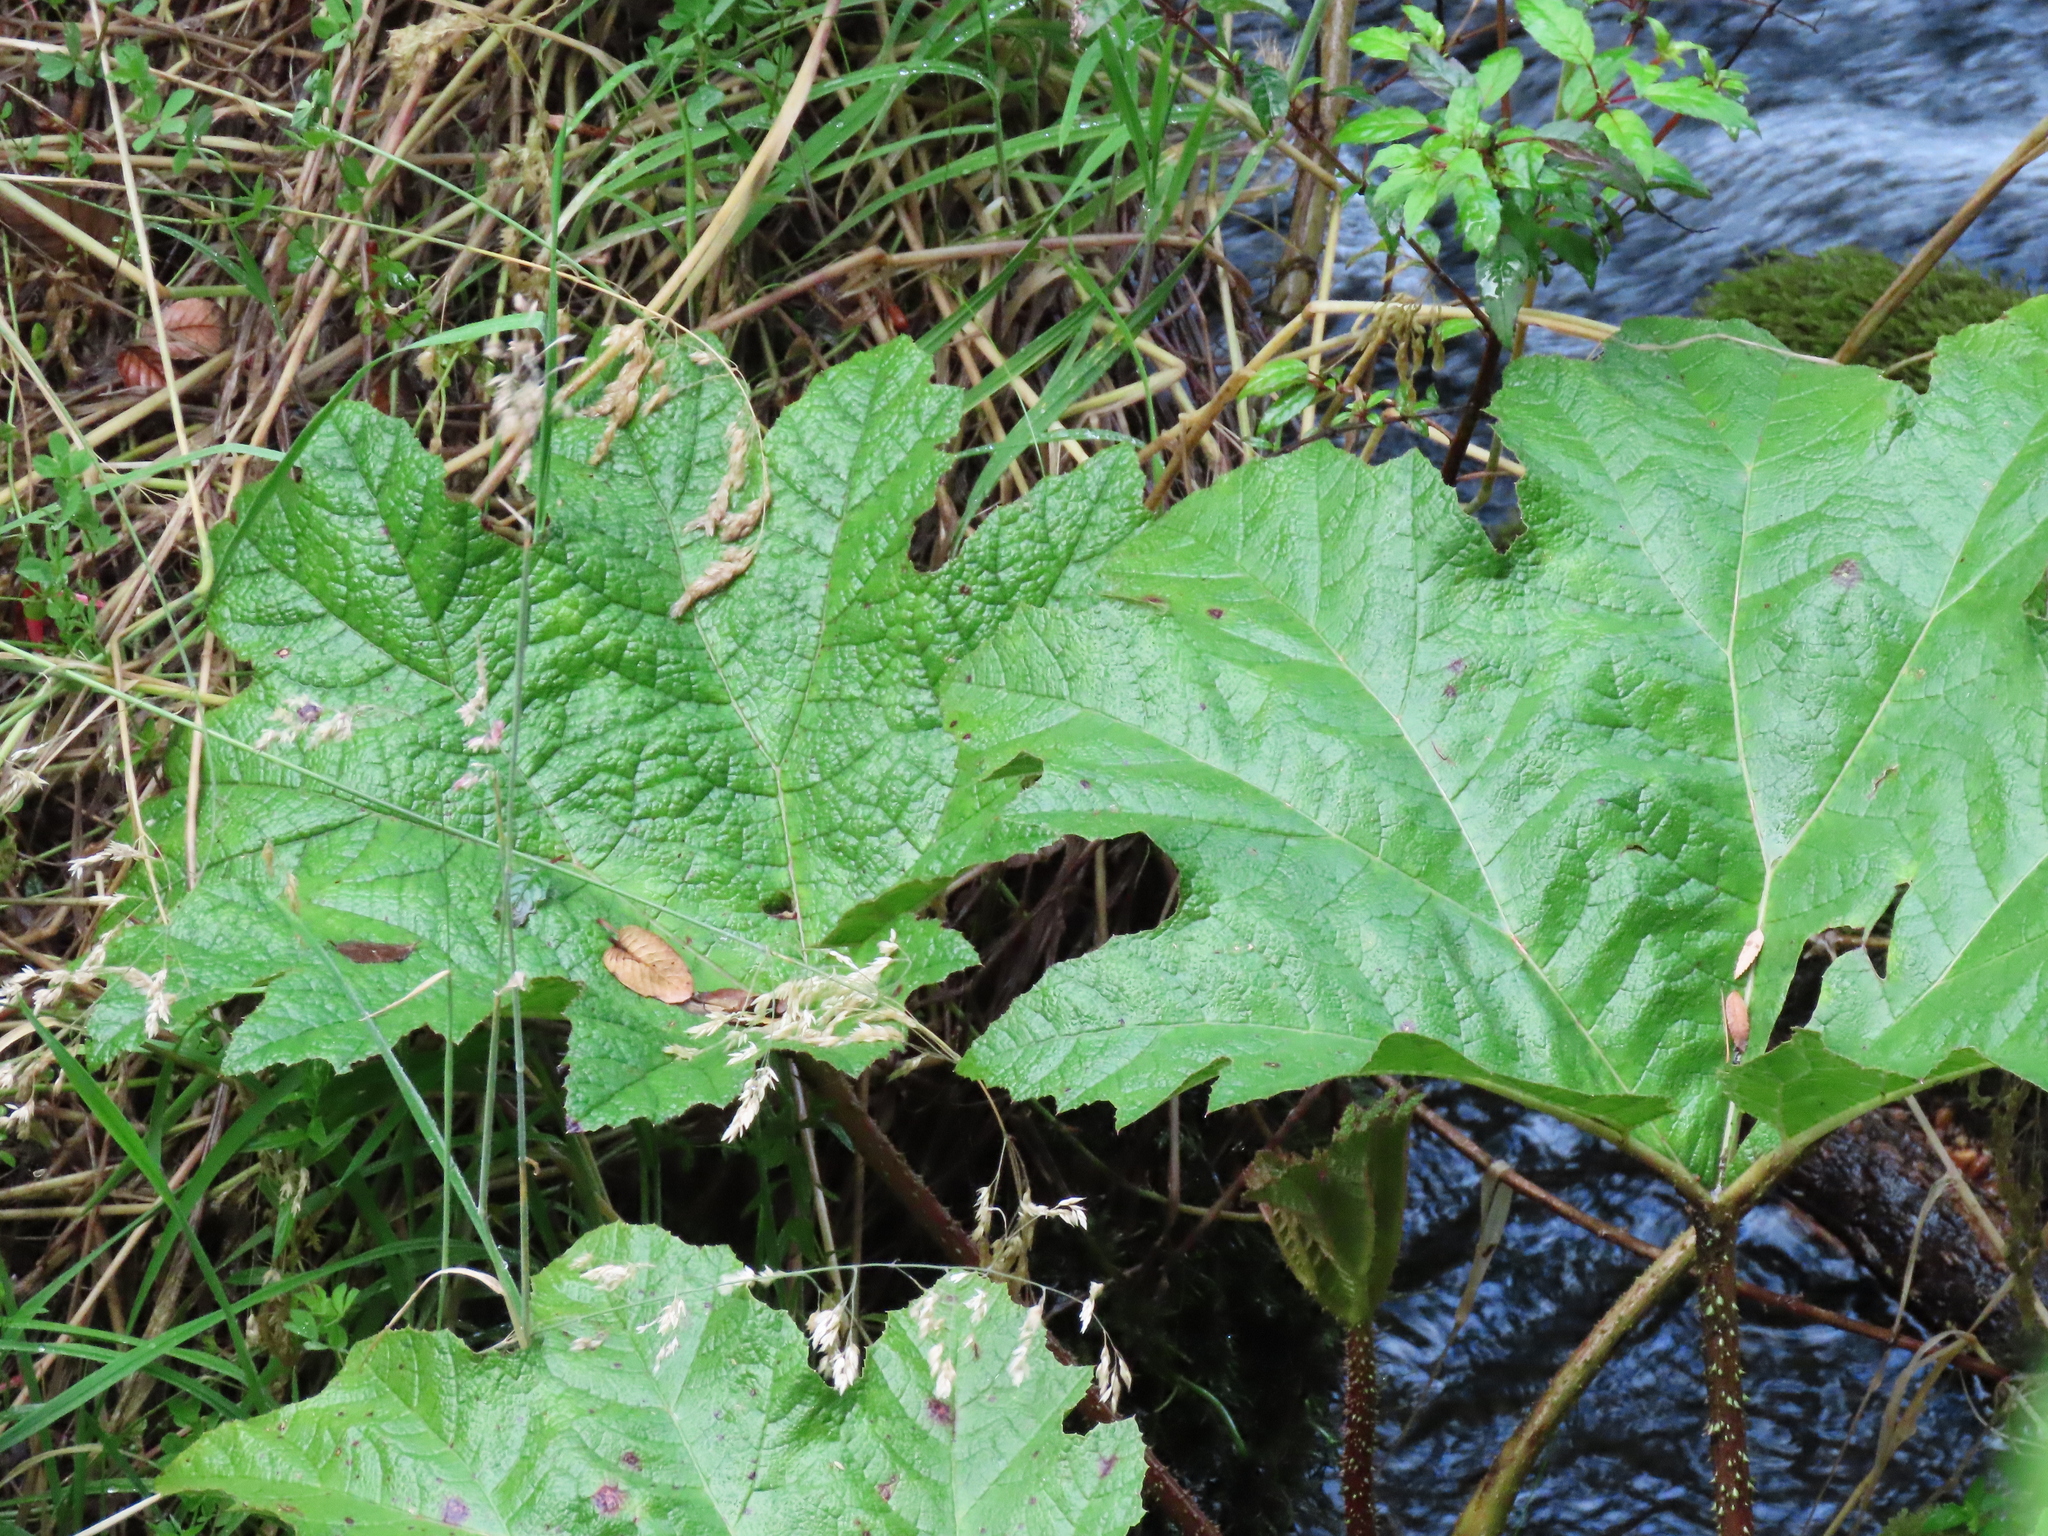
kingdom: Plantae
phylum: Tracheophyta
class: Magnoliopsida
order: Gunnerales
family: Gunneraceae
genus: Gunnera
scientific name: Gunnera tinctoria
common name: Giant-rhubarb
